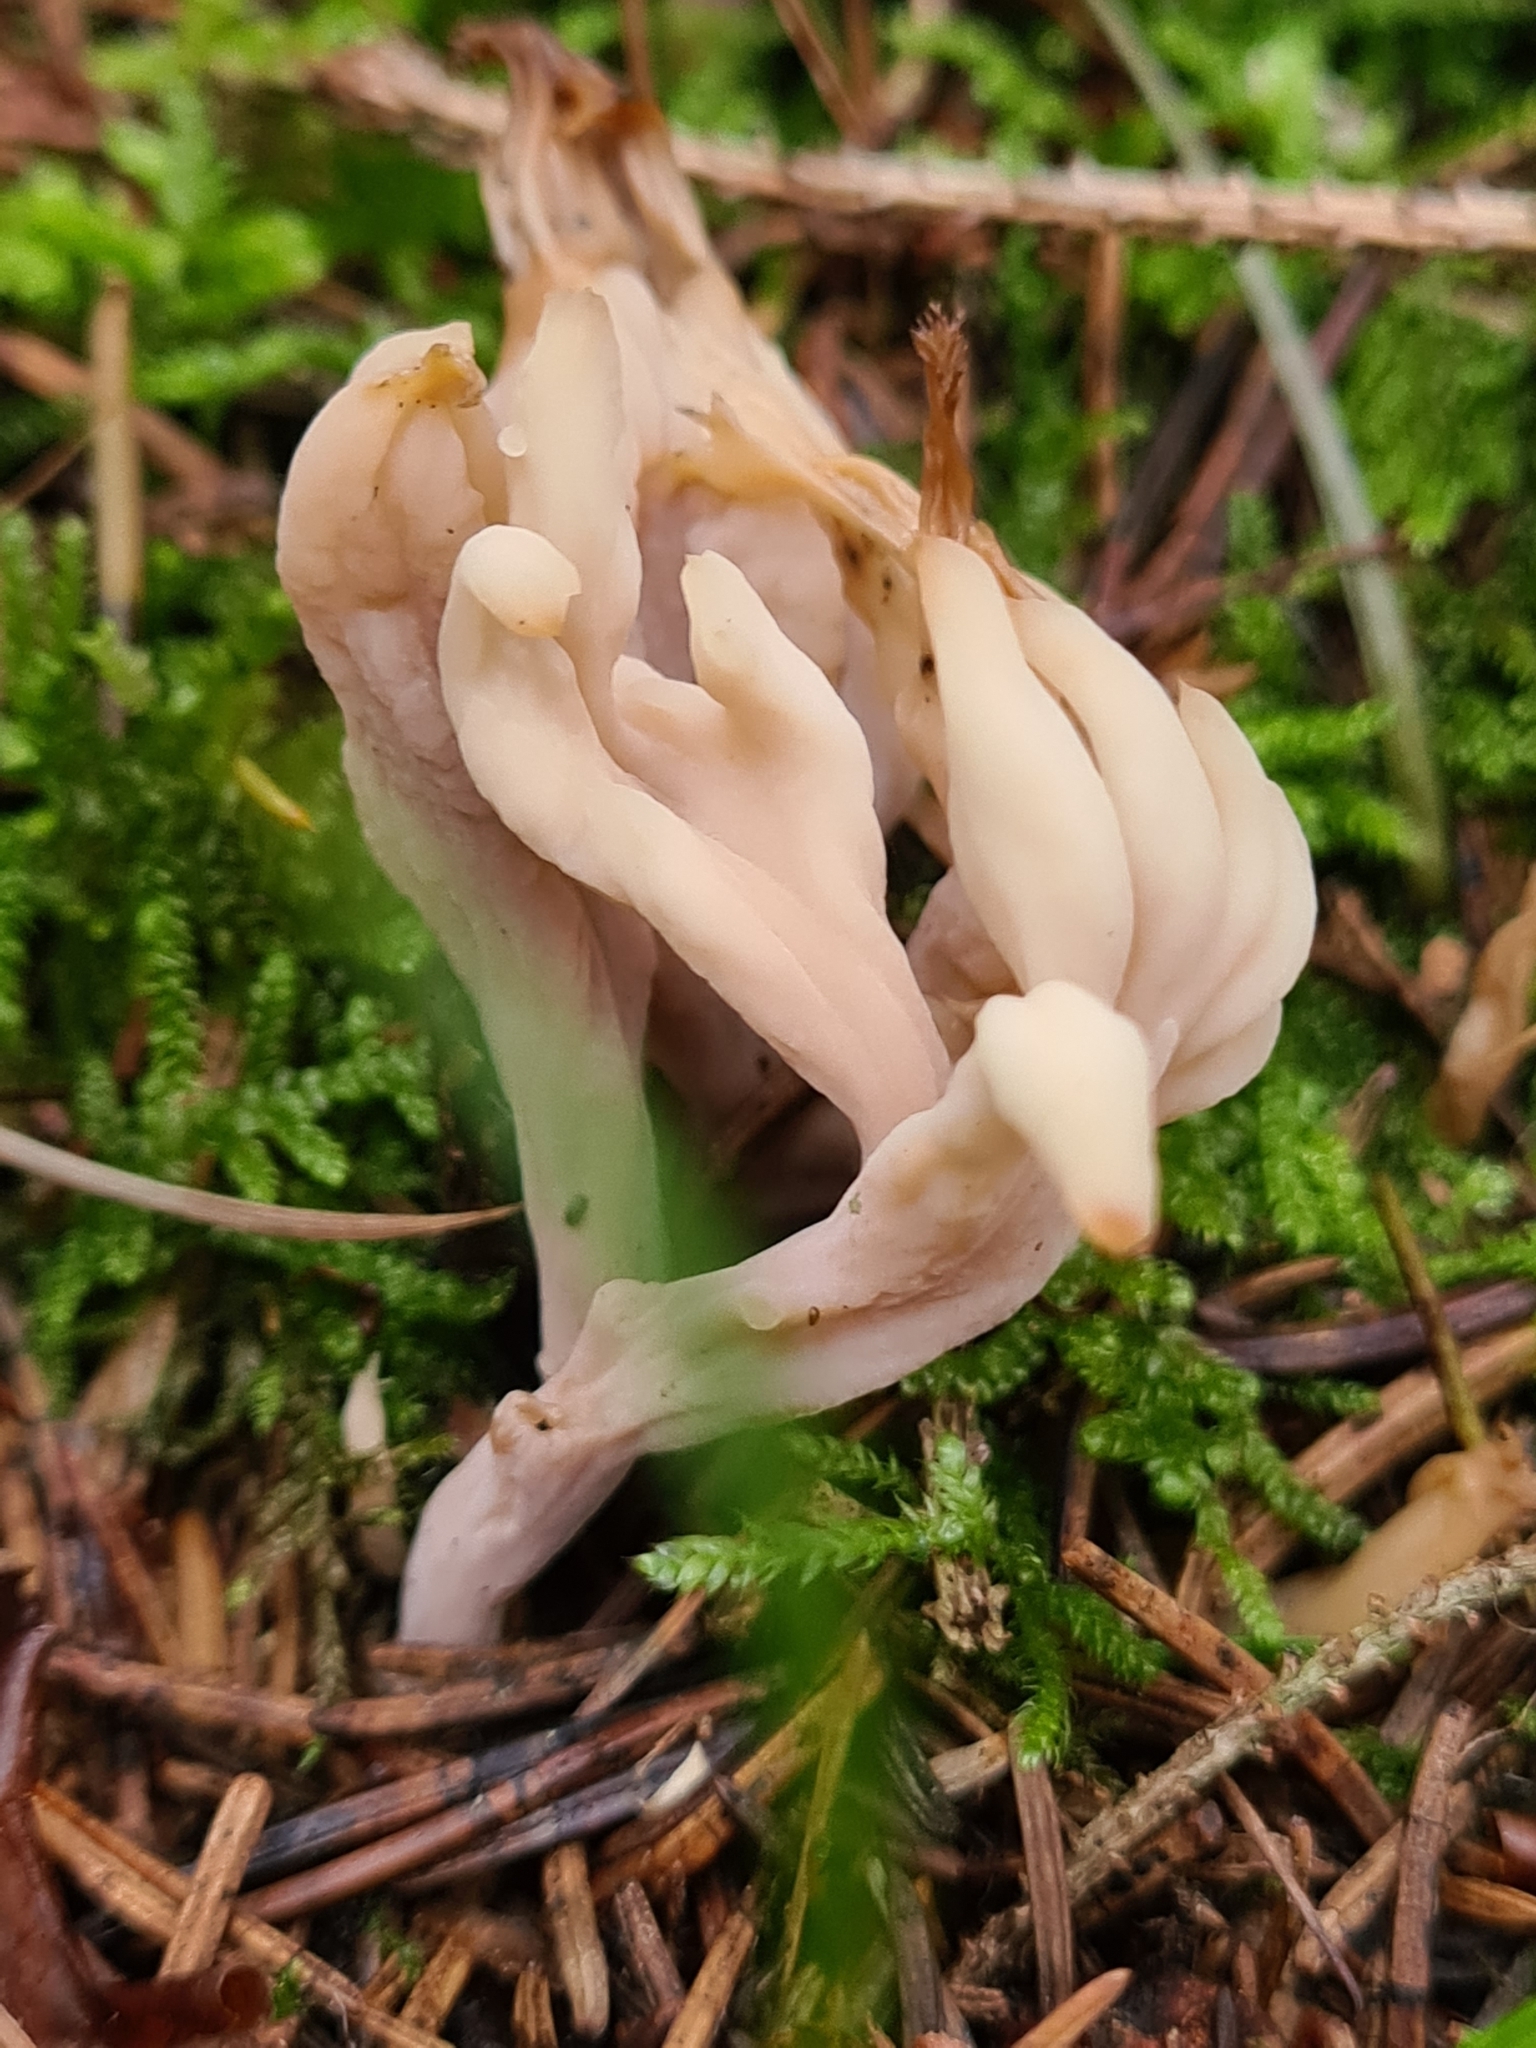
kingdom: Fungi
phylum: Basidiomycota
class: Agaricomycetes
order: Cantharellales
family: Hydnaceae
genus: Clavulina
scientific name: Clavulina rugosa
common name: Wrinkled club
